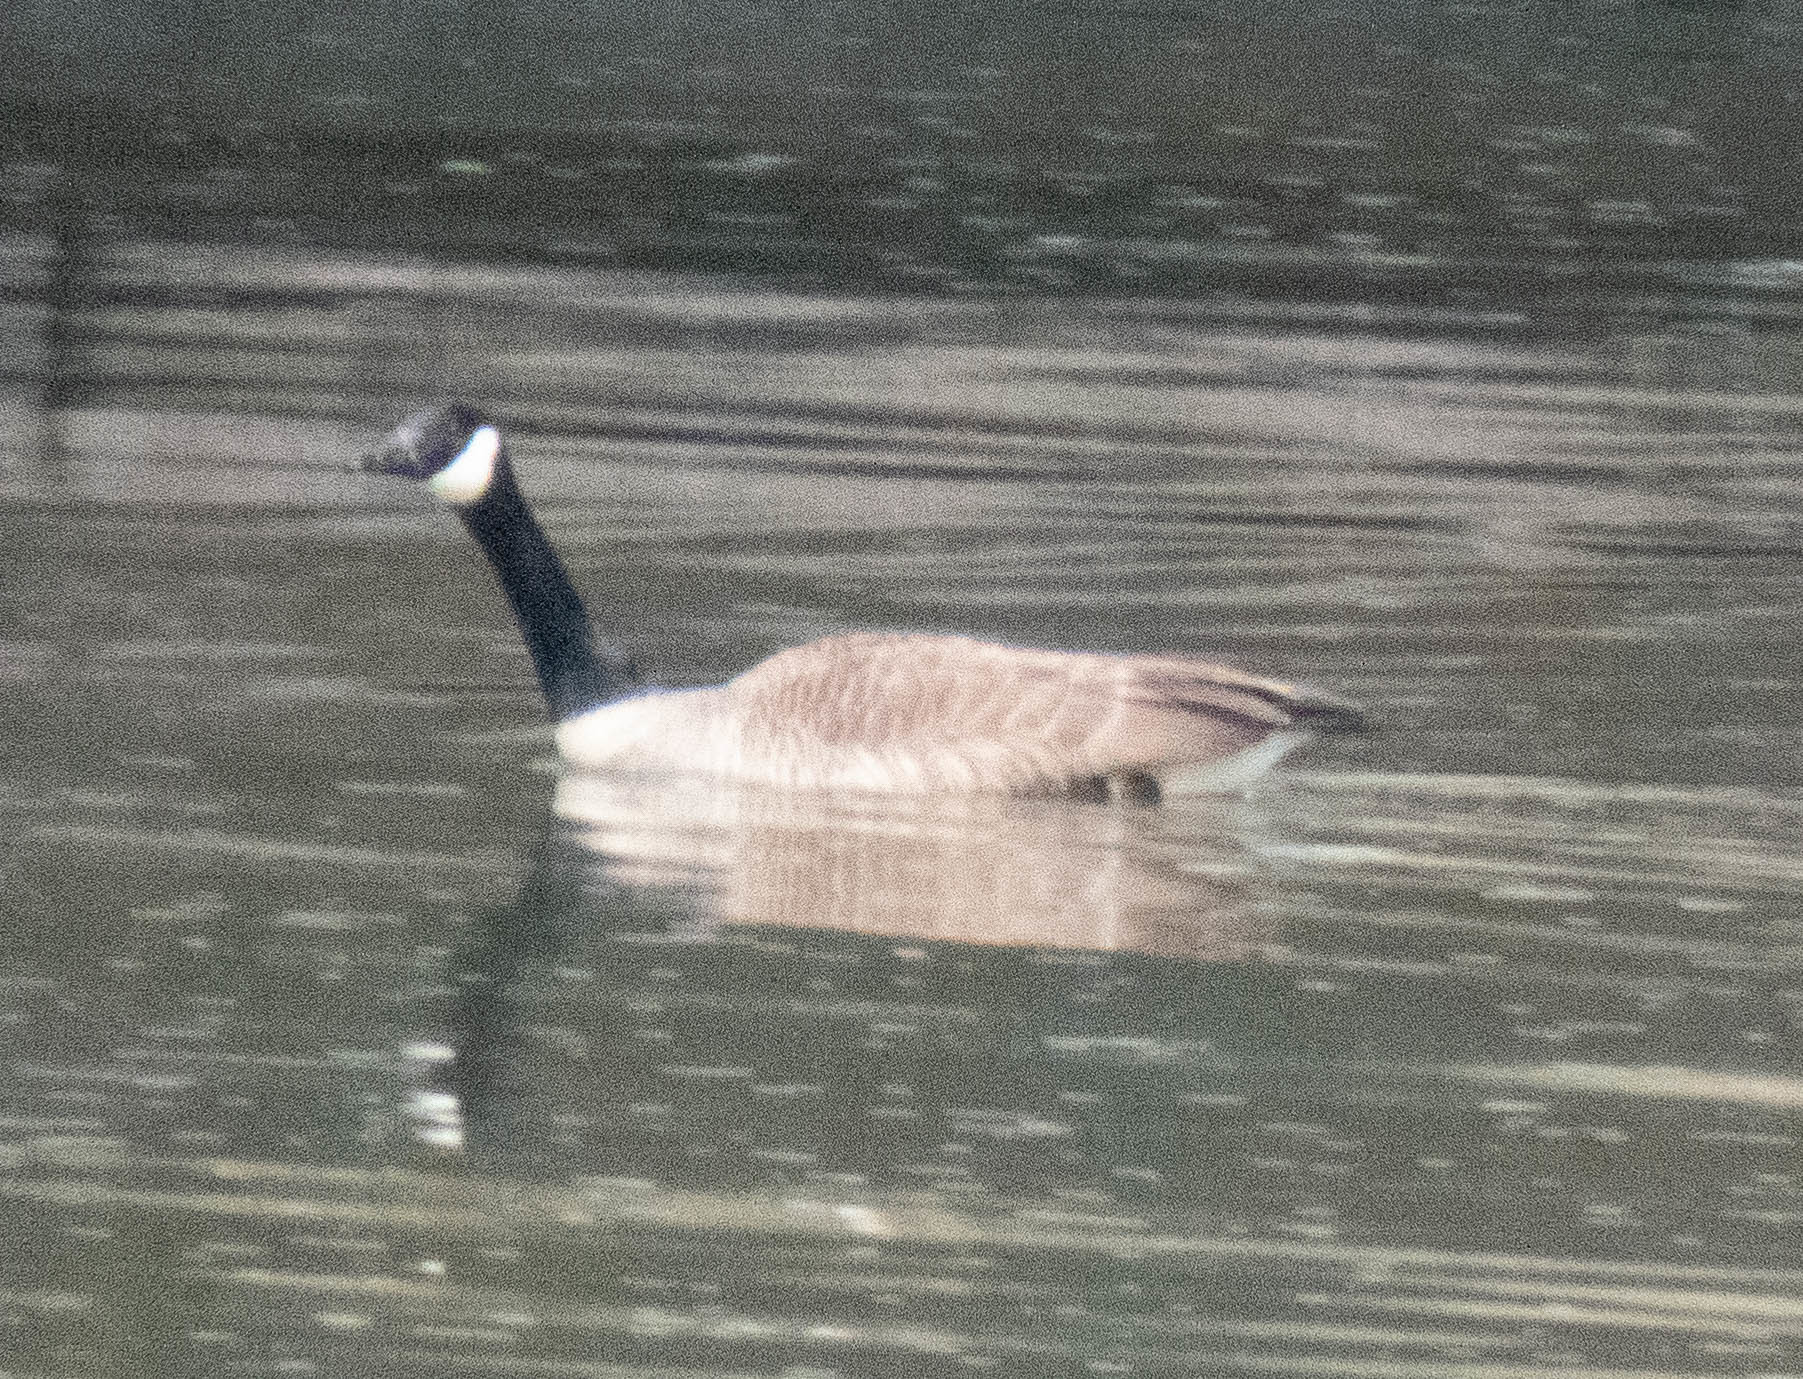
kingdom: Animalia
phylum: Chordata
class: Aves
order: Anseriformes
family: Anatidae
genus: Branta
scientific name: Branta canadensis
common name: Canada goose
